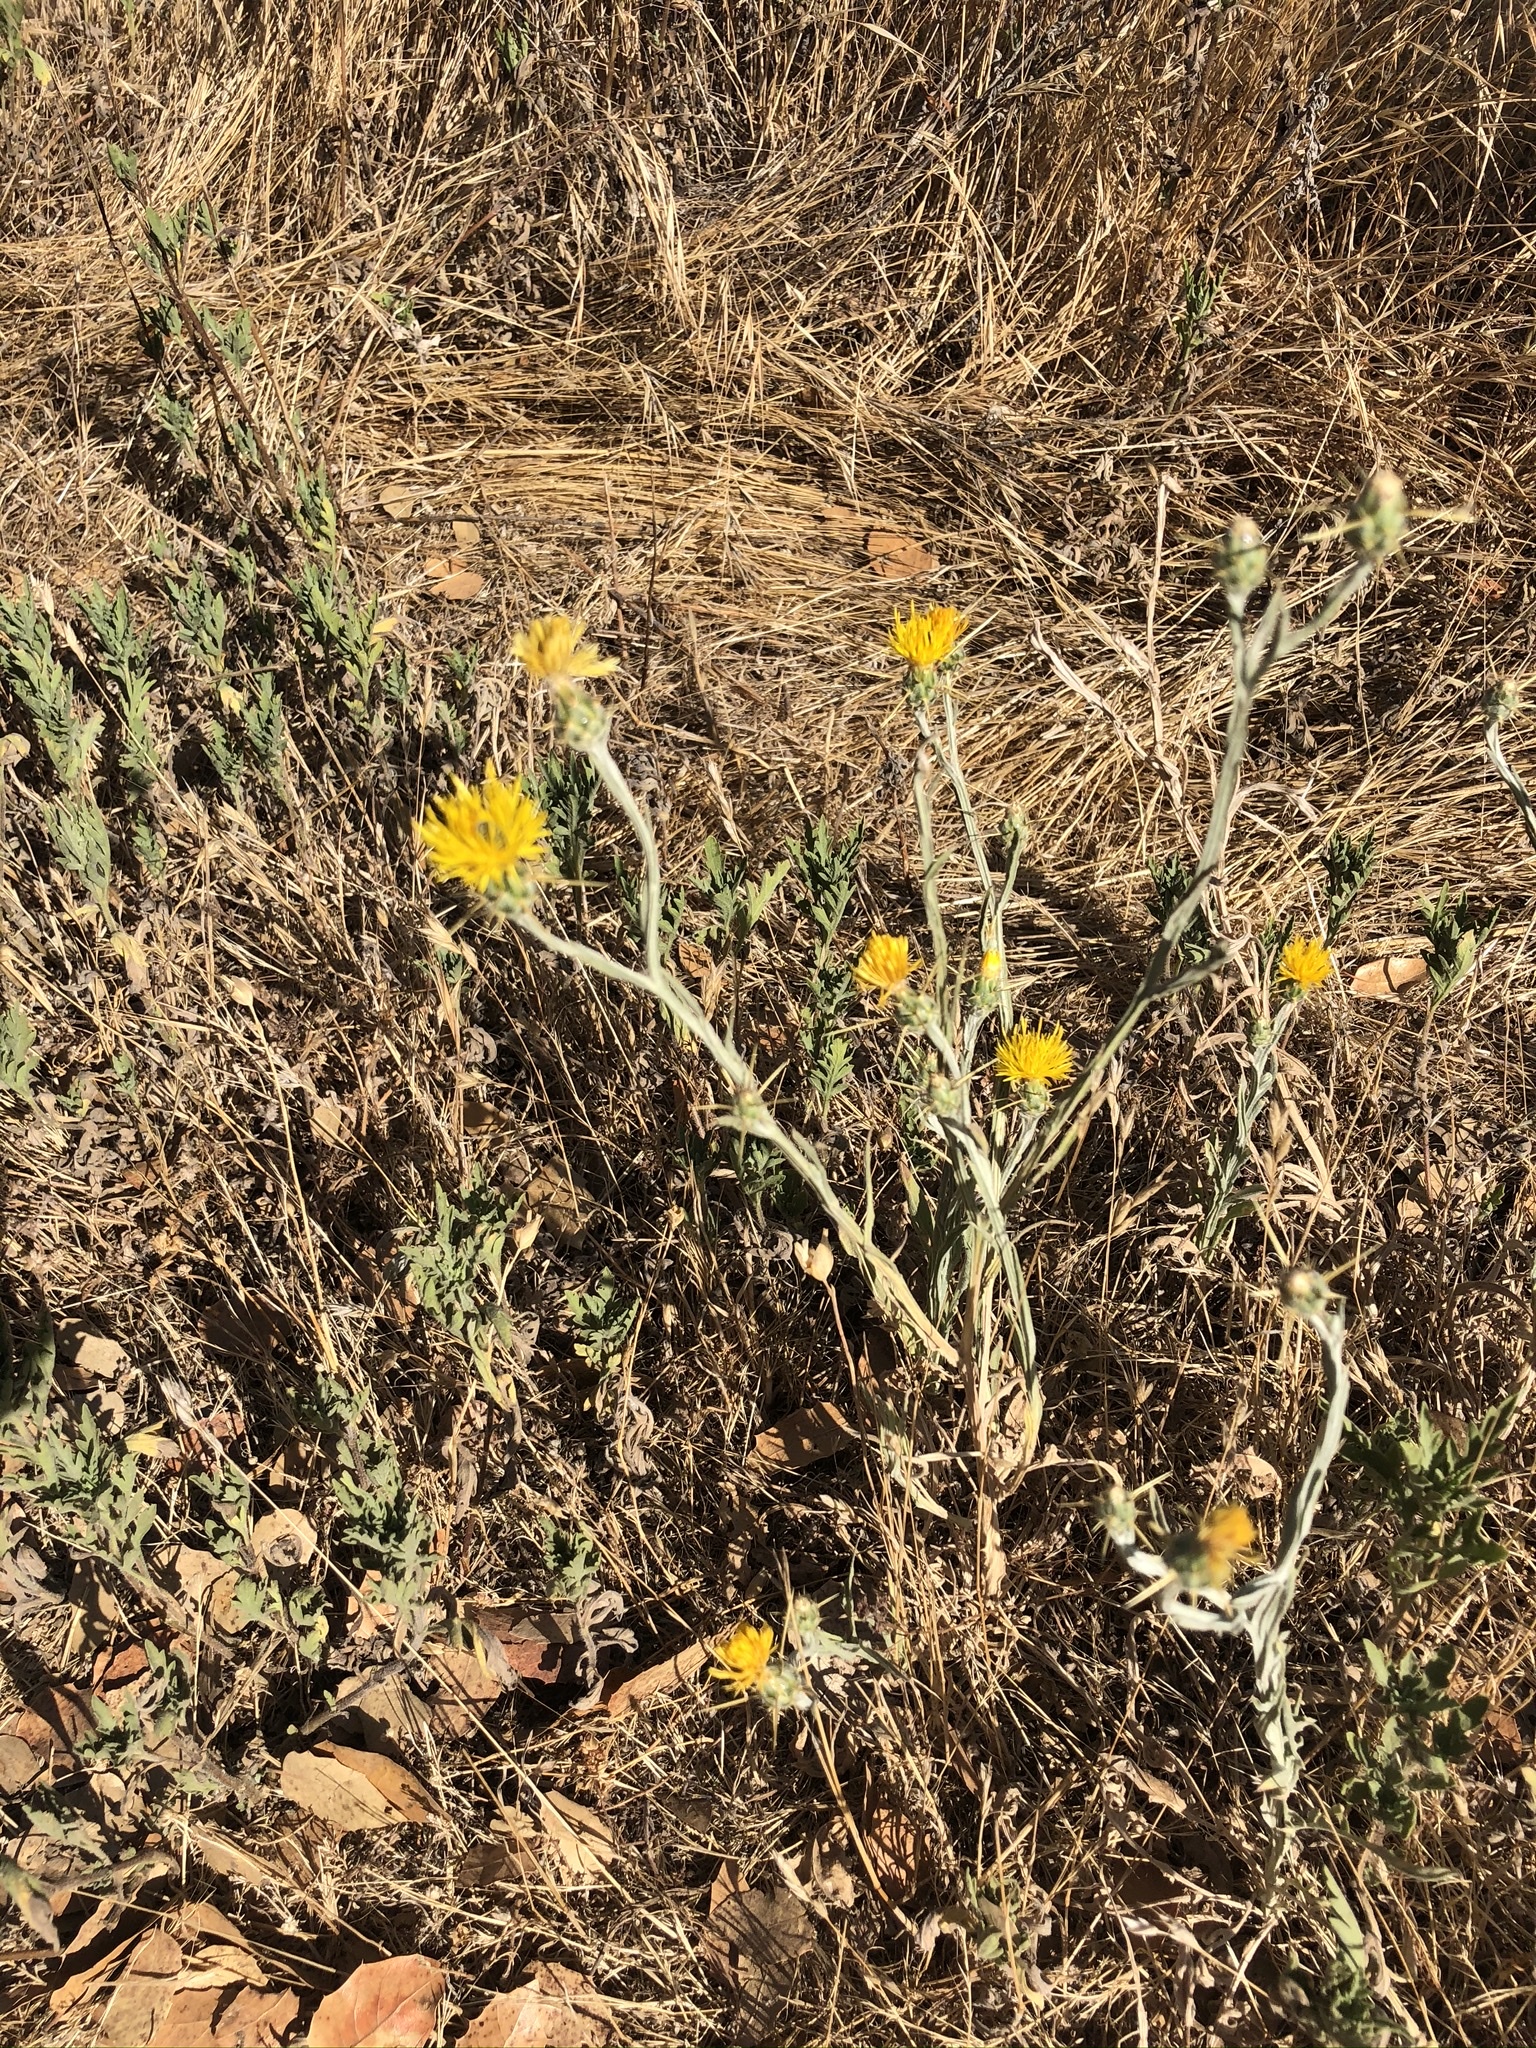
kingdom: Plantae
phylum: Tracheophyta
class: Magnoliopsida
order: Asterales
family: Asteraceae
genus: Centaurea
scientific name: Centaurea solstitialis
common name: Yellow star-thistle
